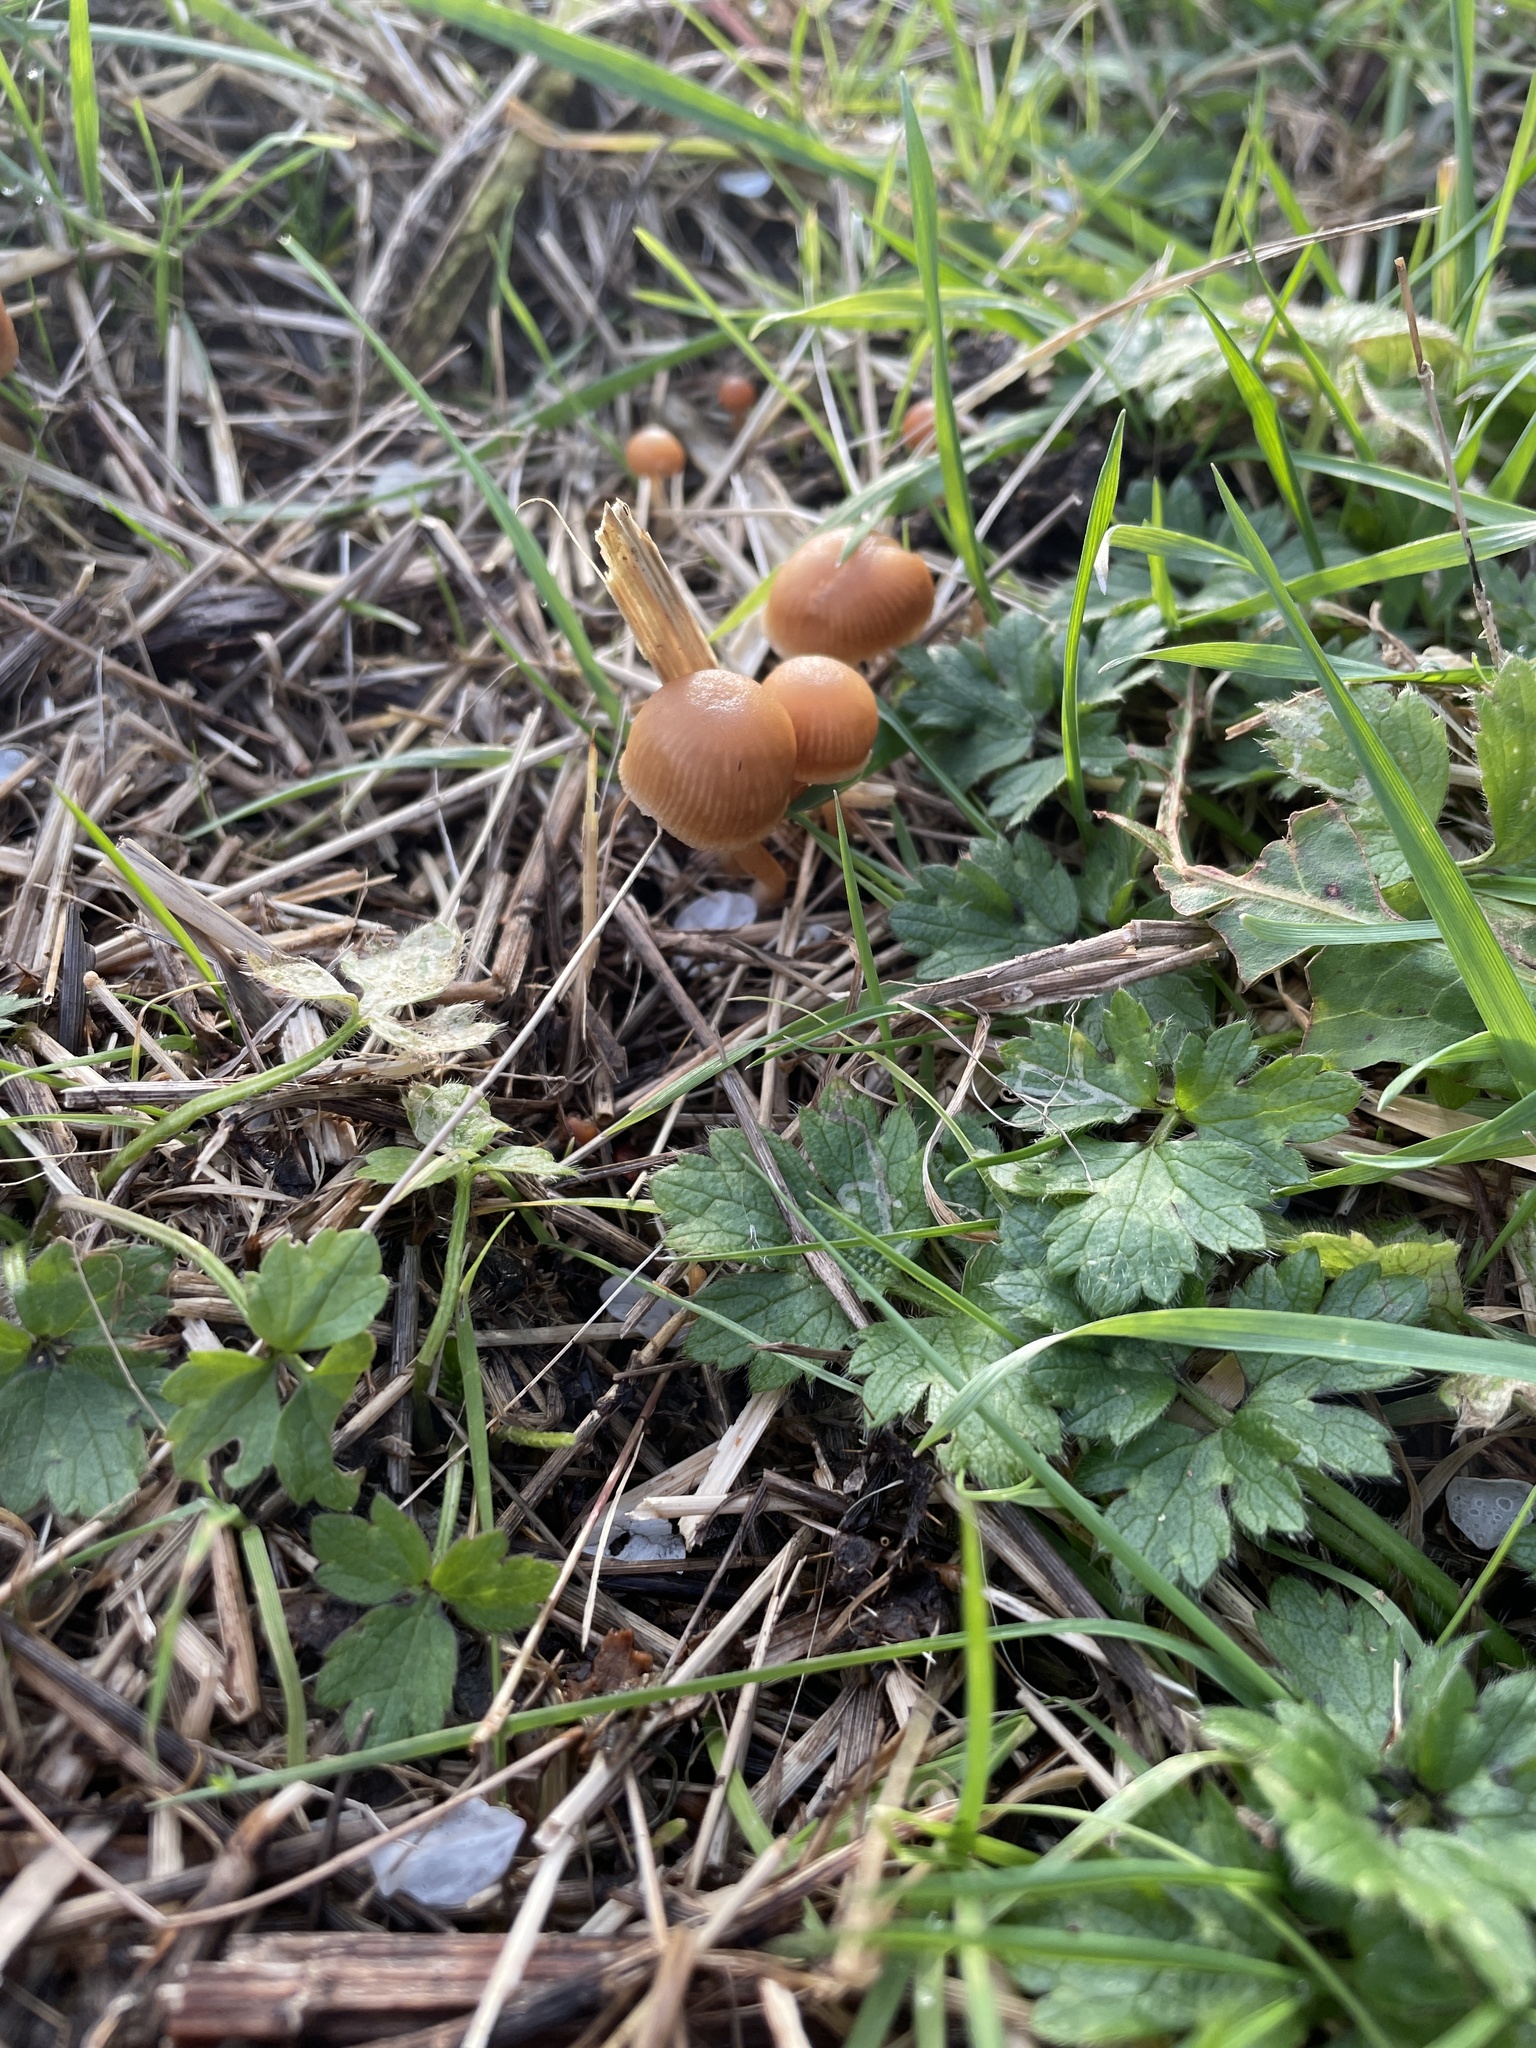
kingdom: Fungi
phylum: Basidiomycota
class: Agaricomycetes
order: Agaricales
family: Tubariaceae
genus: Tubaria
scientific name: Tubaria furfuracea
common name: Scurfy twiglet
